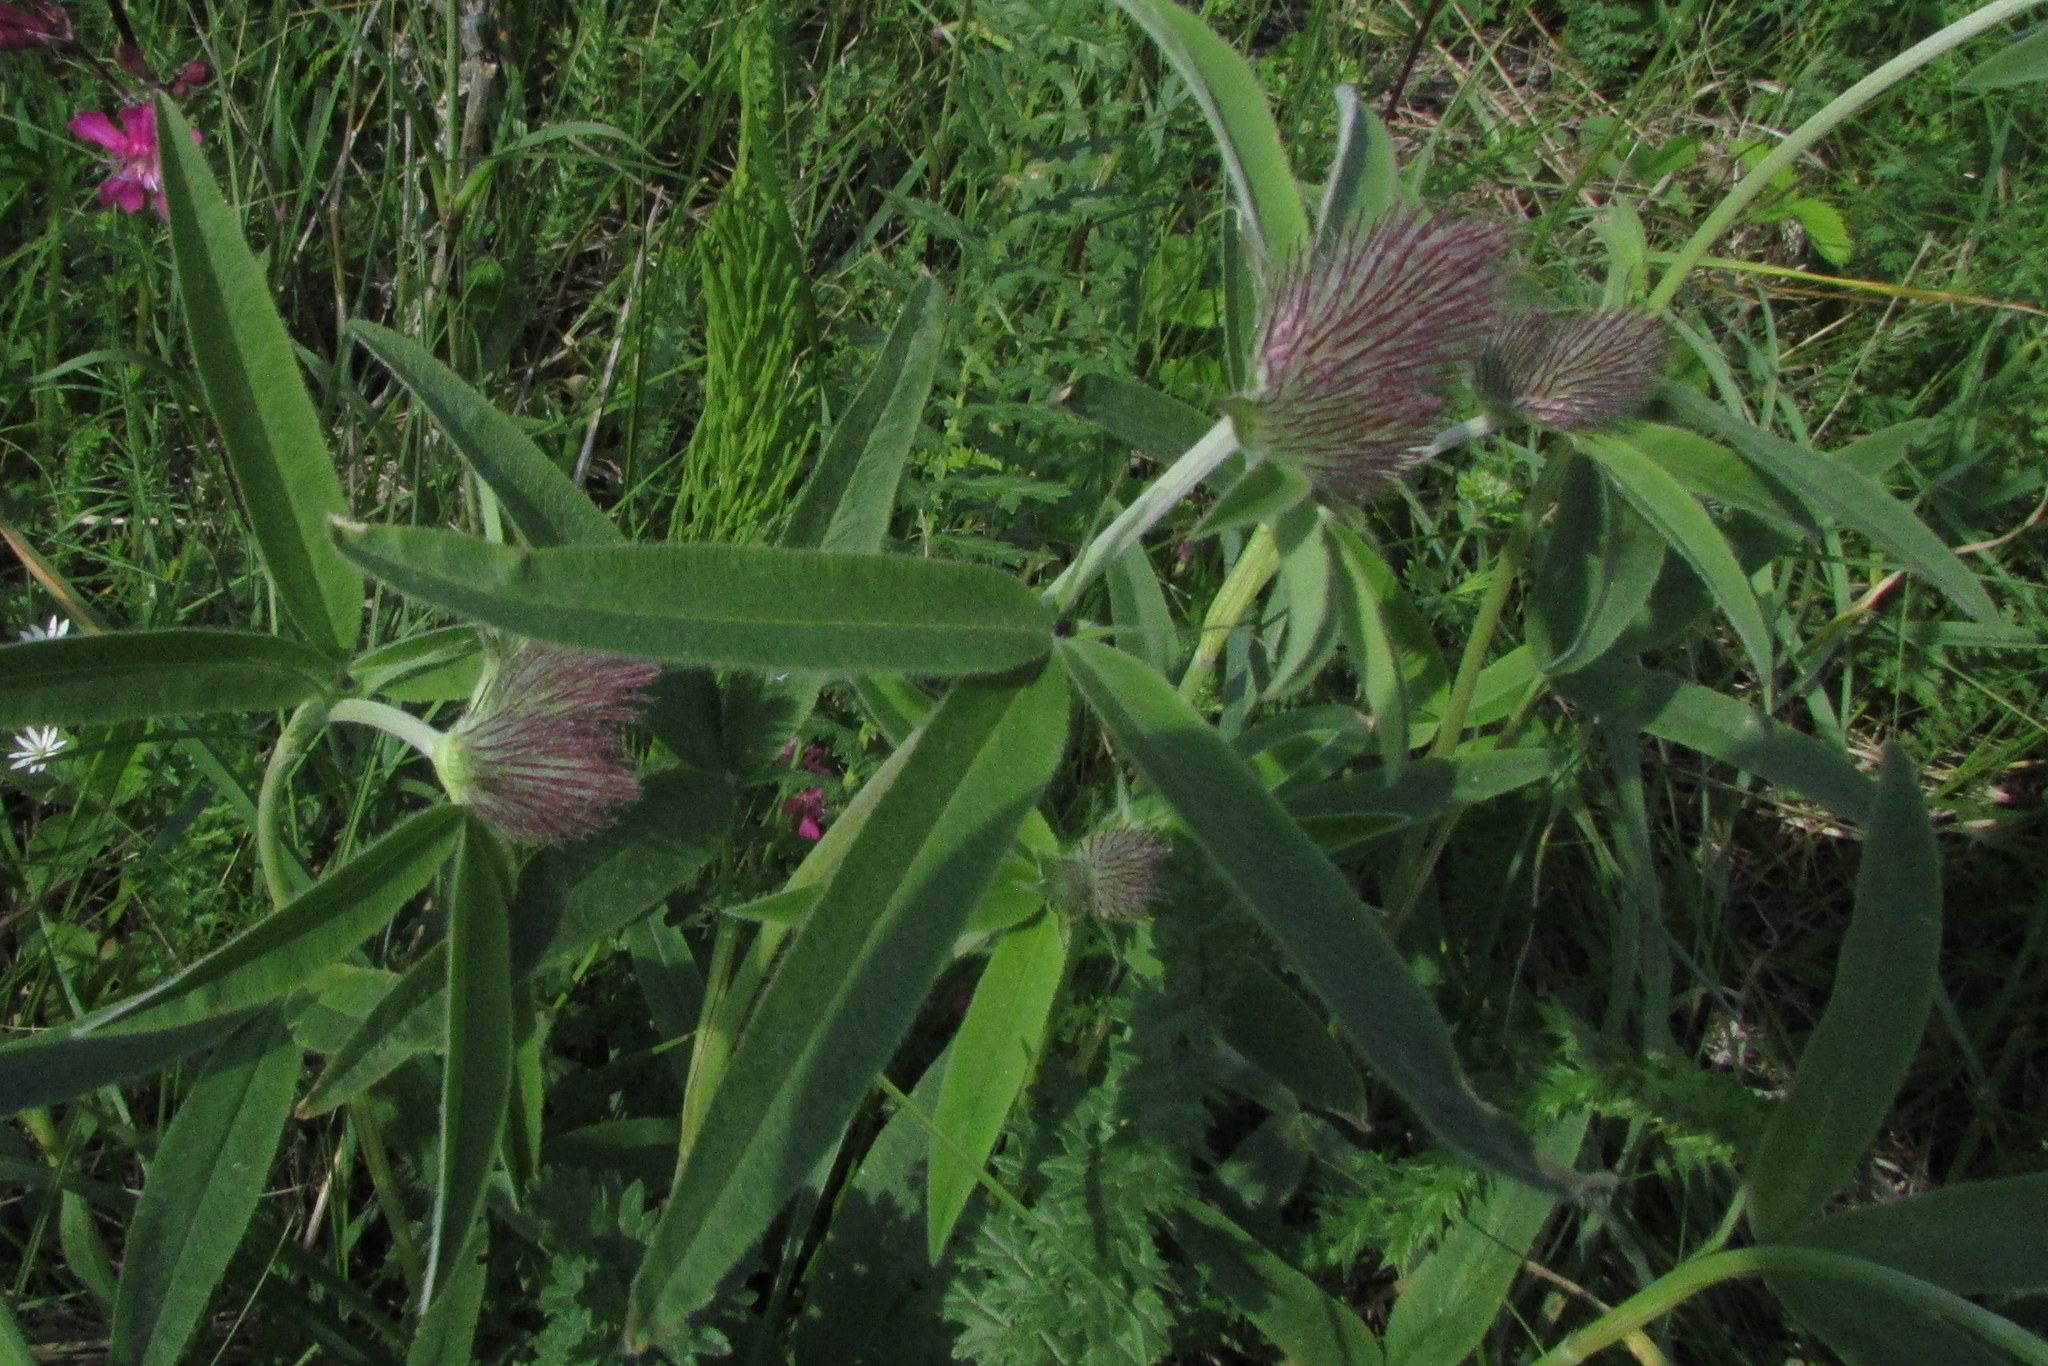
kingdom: Plantae
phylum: Tracheophyta
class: Magnoliopsida
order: Fabales
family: Fabaceae
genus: Trifolium
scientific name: Trifolium alpestre
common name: Owl-head clover
